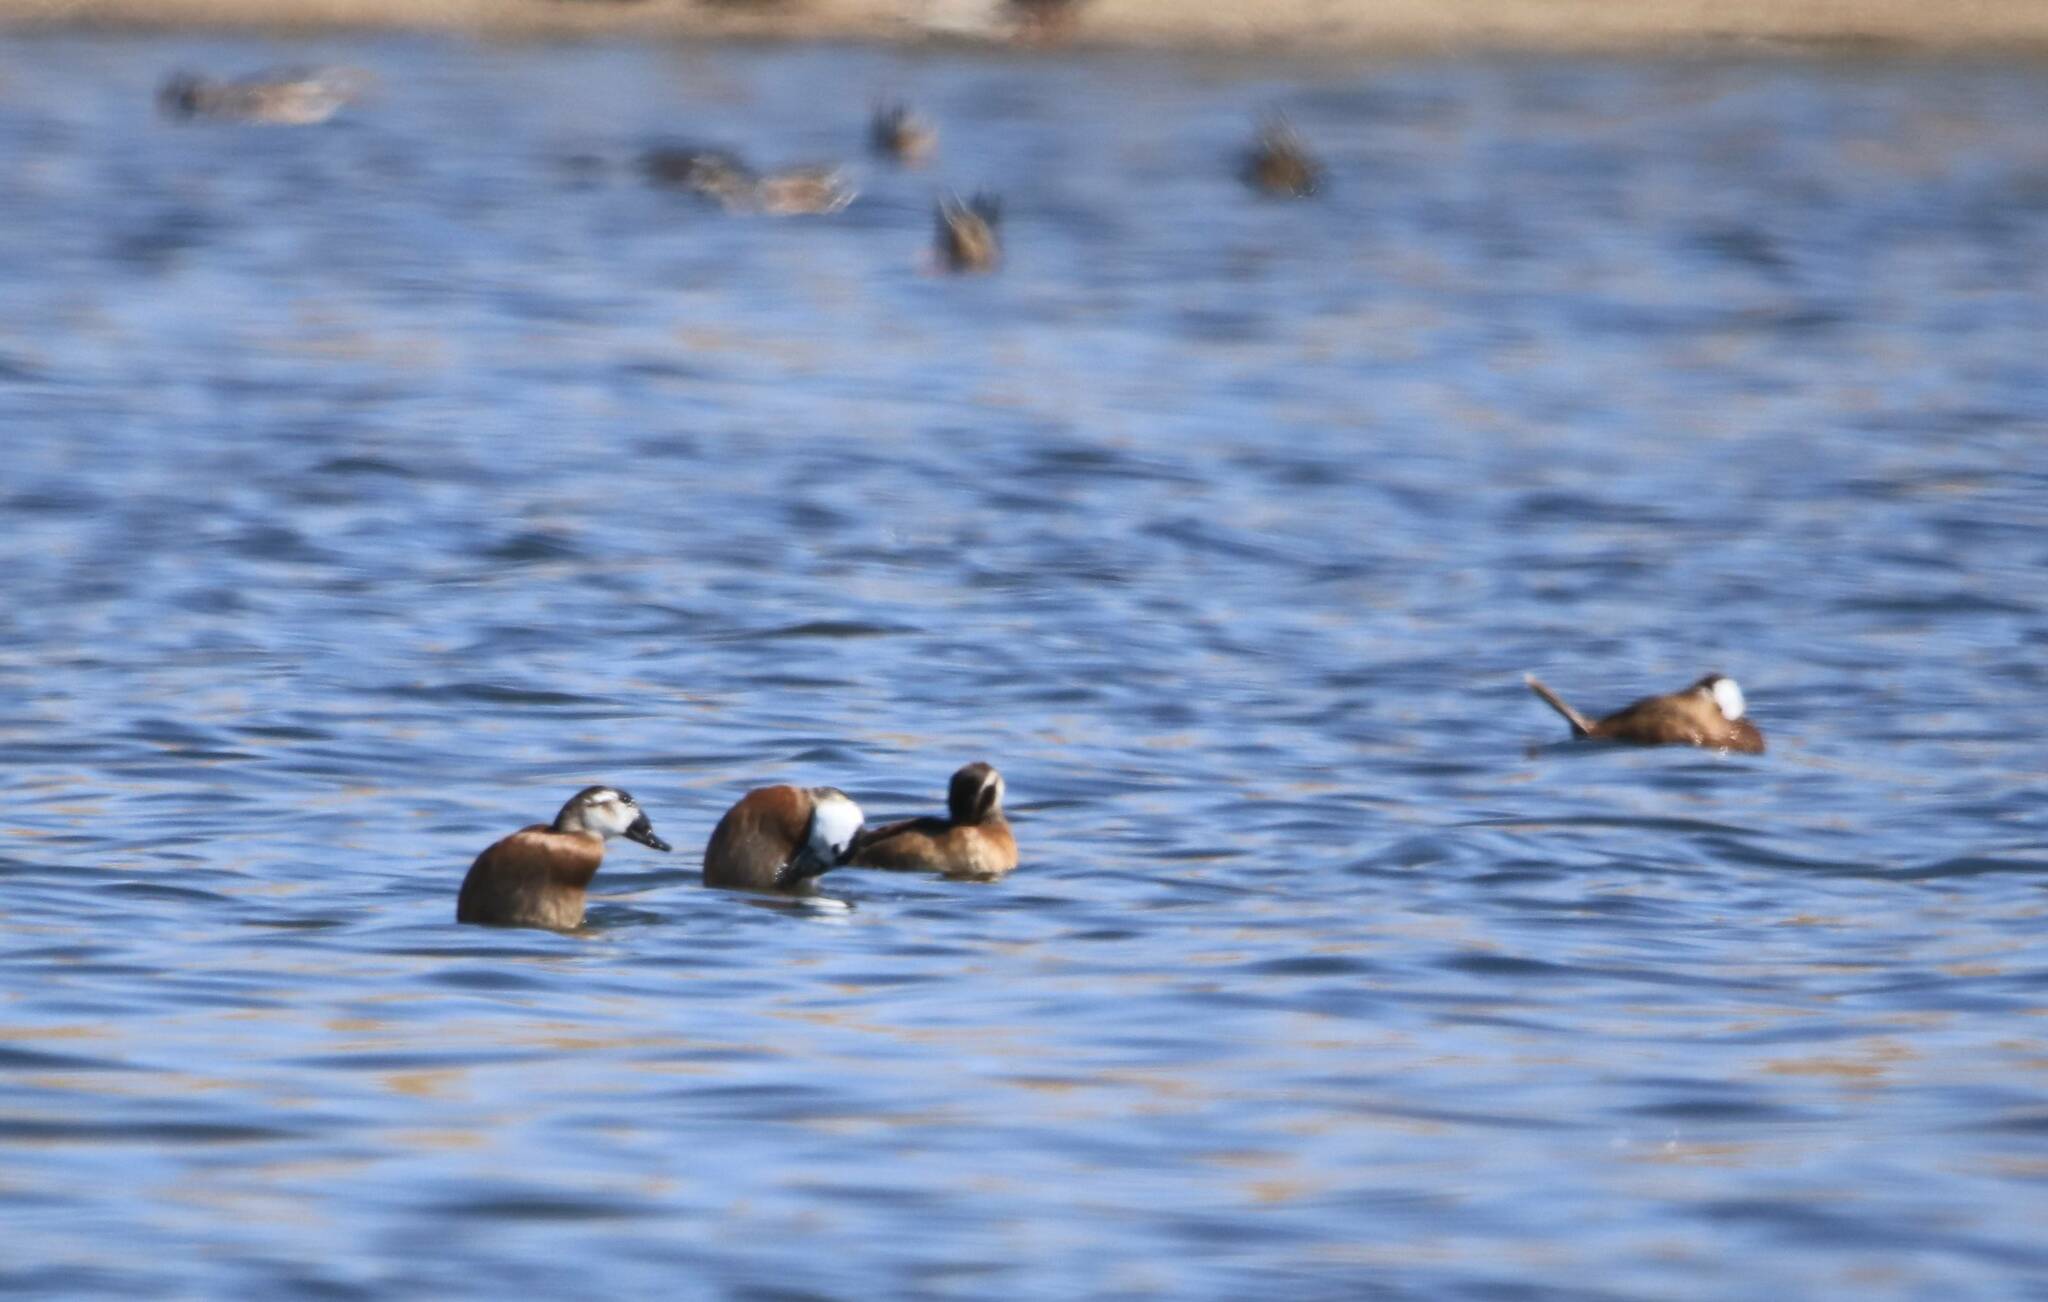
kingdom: Animalia
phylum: Chordata
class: Aves
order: Anseriformes
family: Anatidae
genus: Oxyura
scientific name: Oxyura leucocephala
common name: White-headed duck
